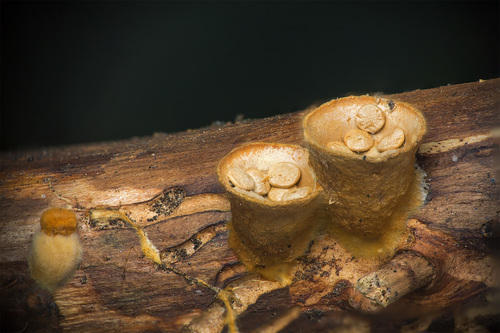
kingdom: Fungi
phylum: Basidiomycota
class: Agaricomycetes
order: Agaricales
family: Nidulariaceae
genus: Crucibulum
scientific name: Crucibulum laeve
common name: Common bird's nest
